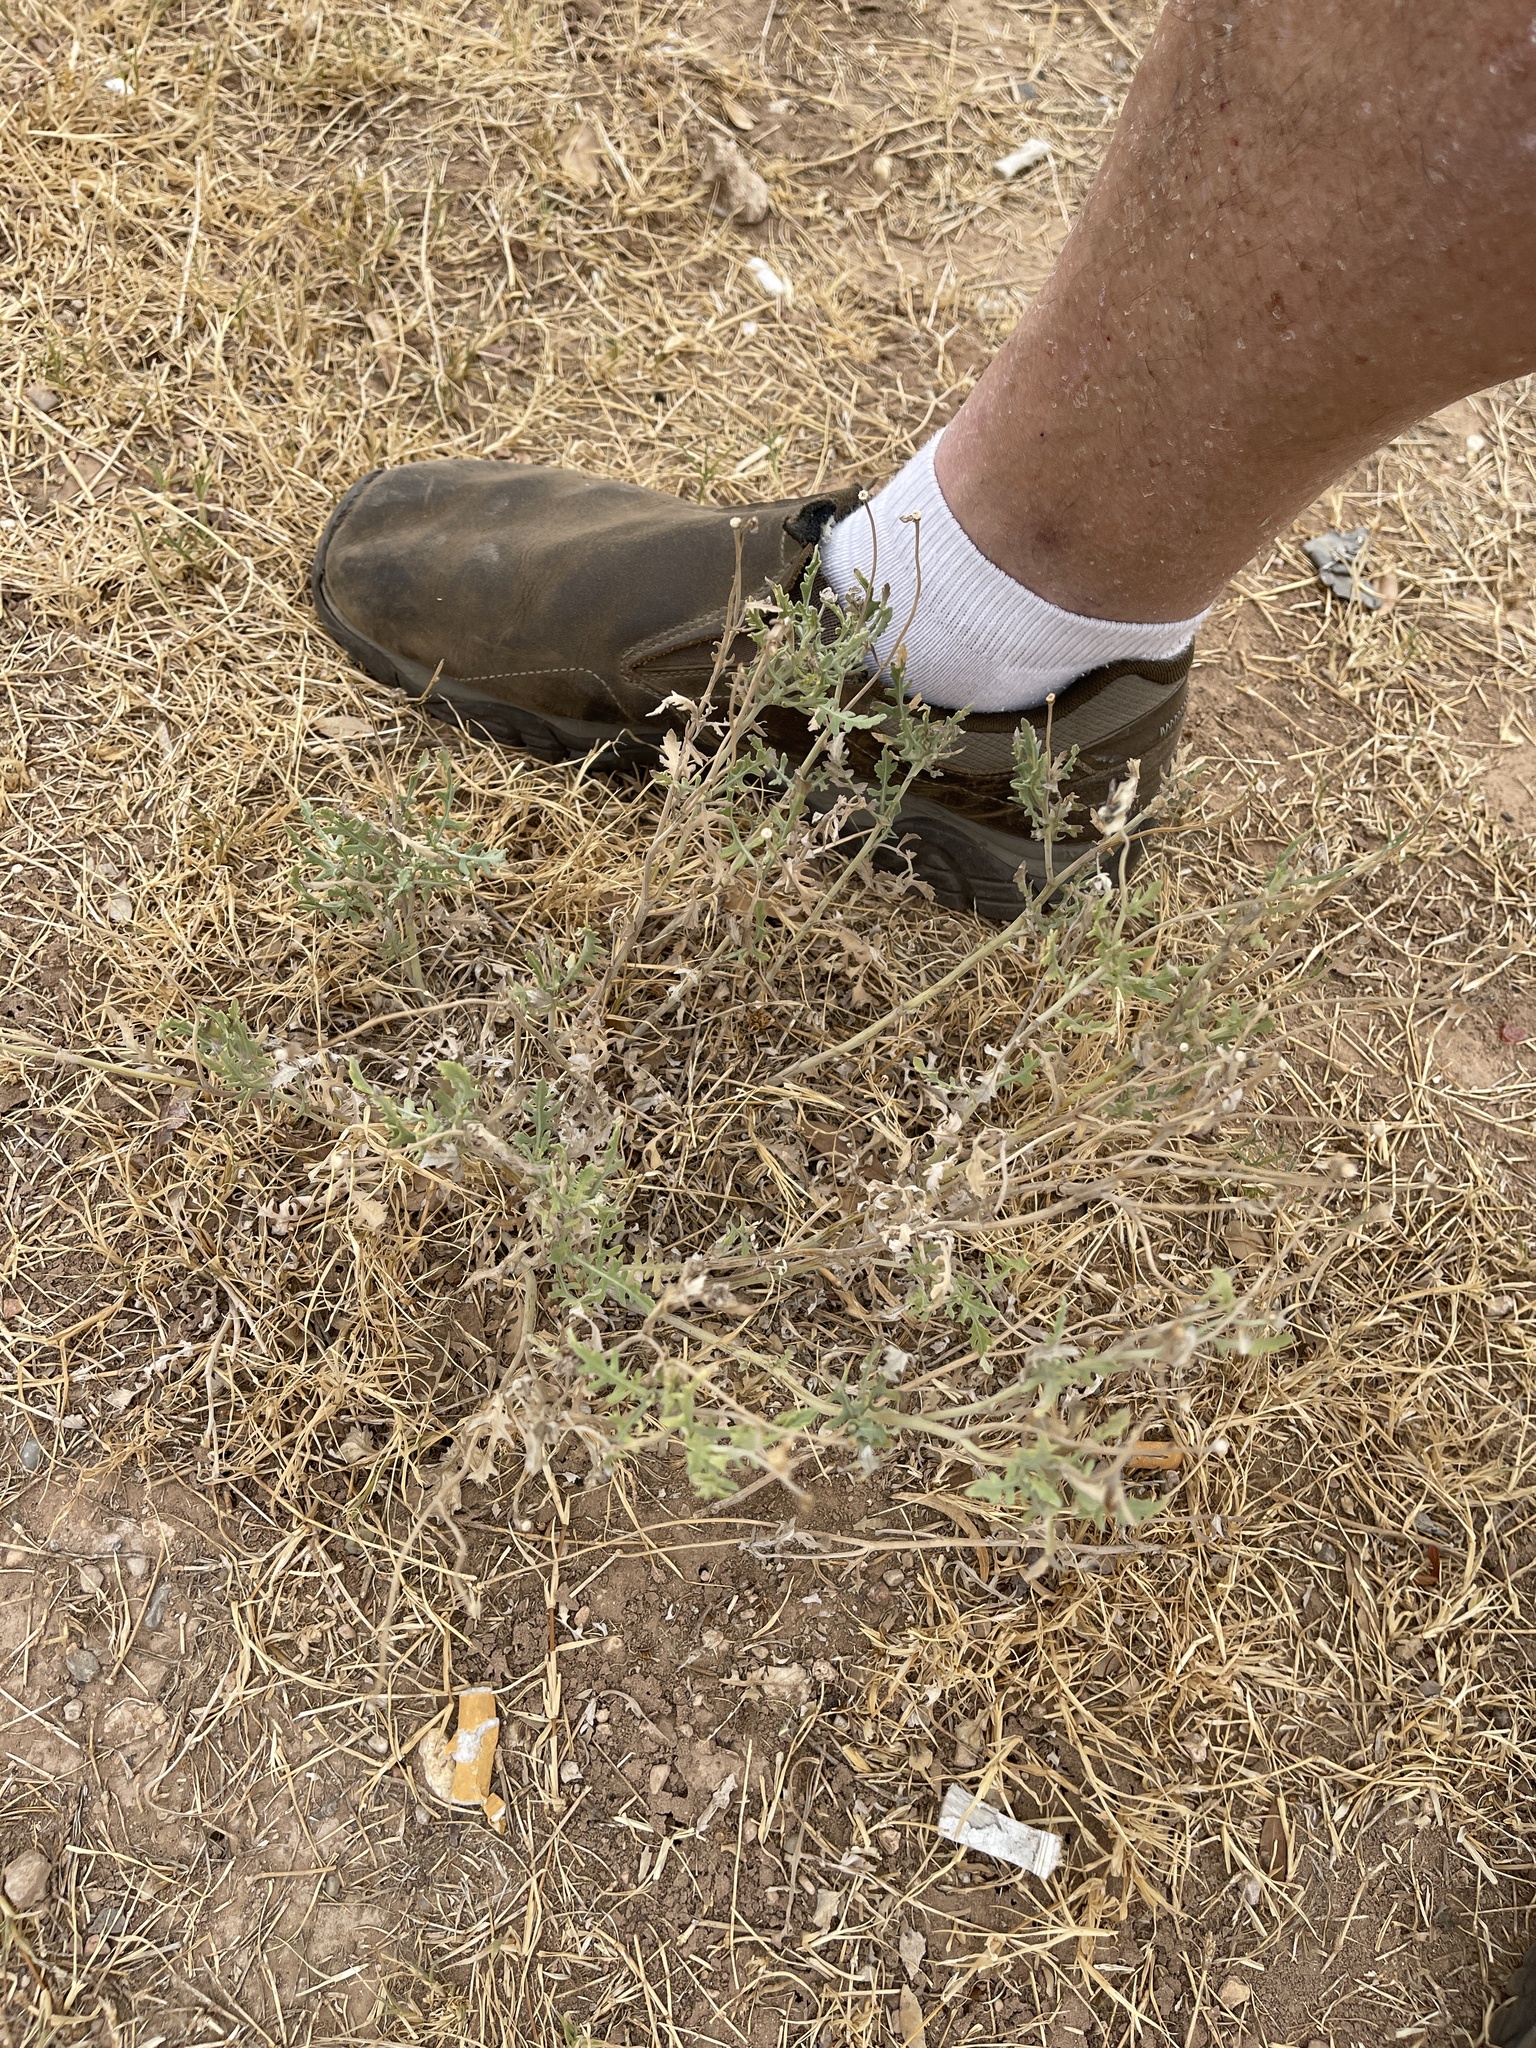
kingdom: Plantae
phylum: Tracheophyta
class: Magnoliopsida
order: Asterales
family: Asteraceae
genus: Berlandiera
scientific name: Berlandiera lyrata
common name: Chocolate-flower
